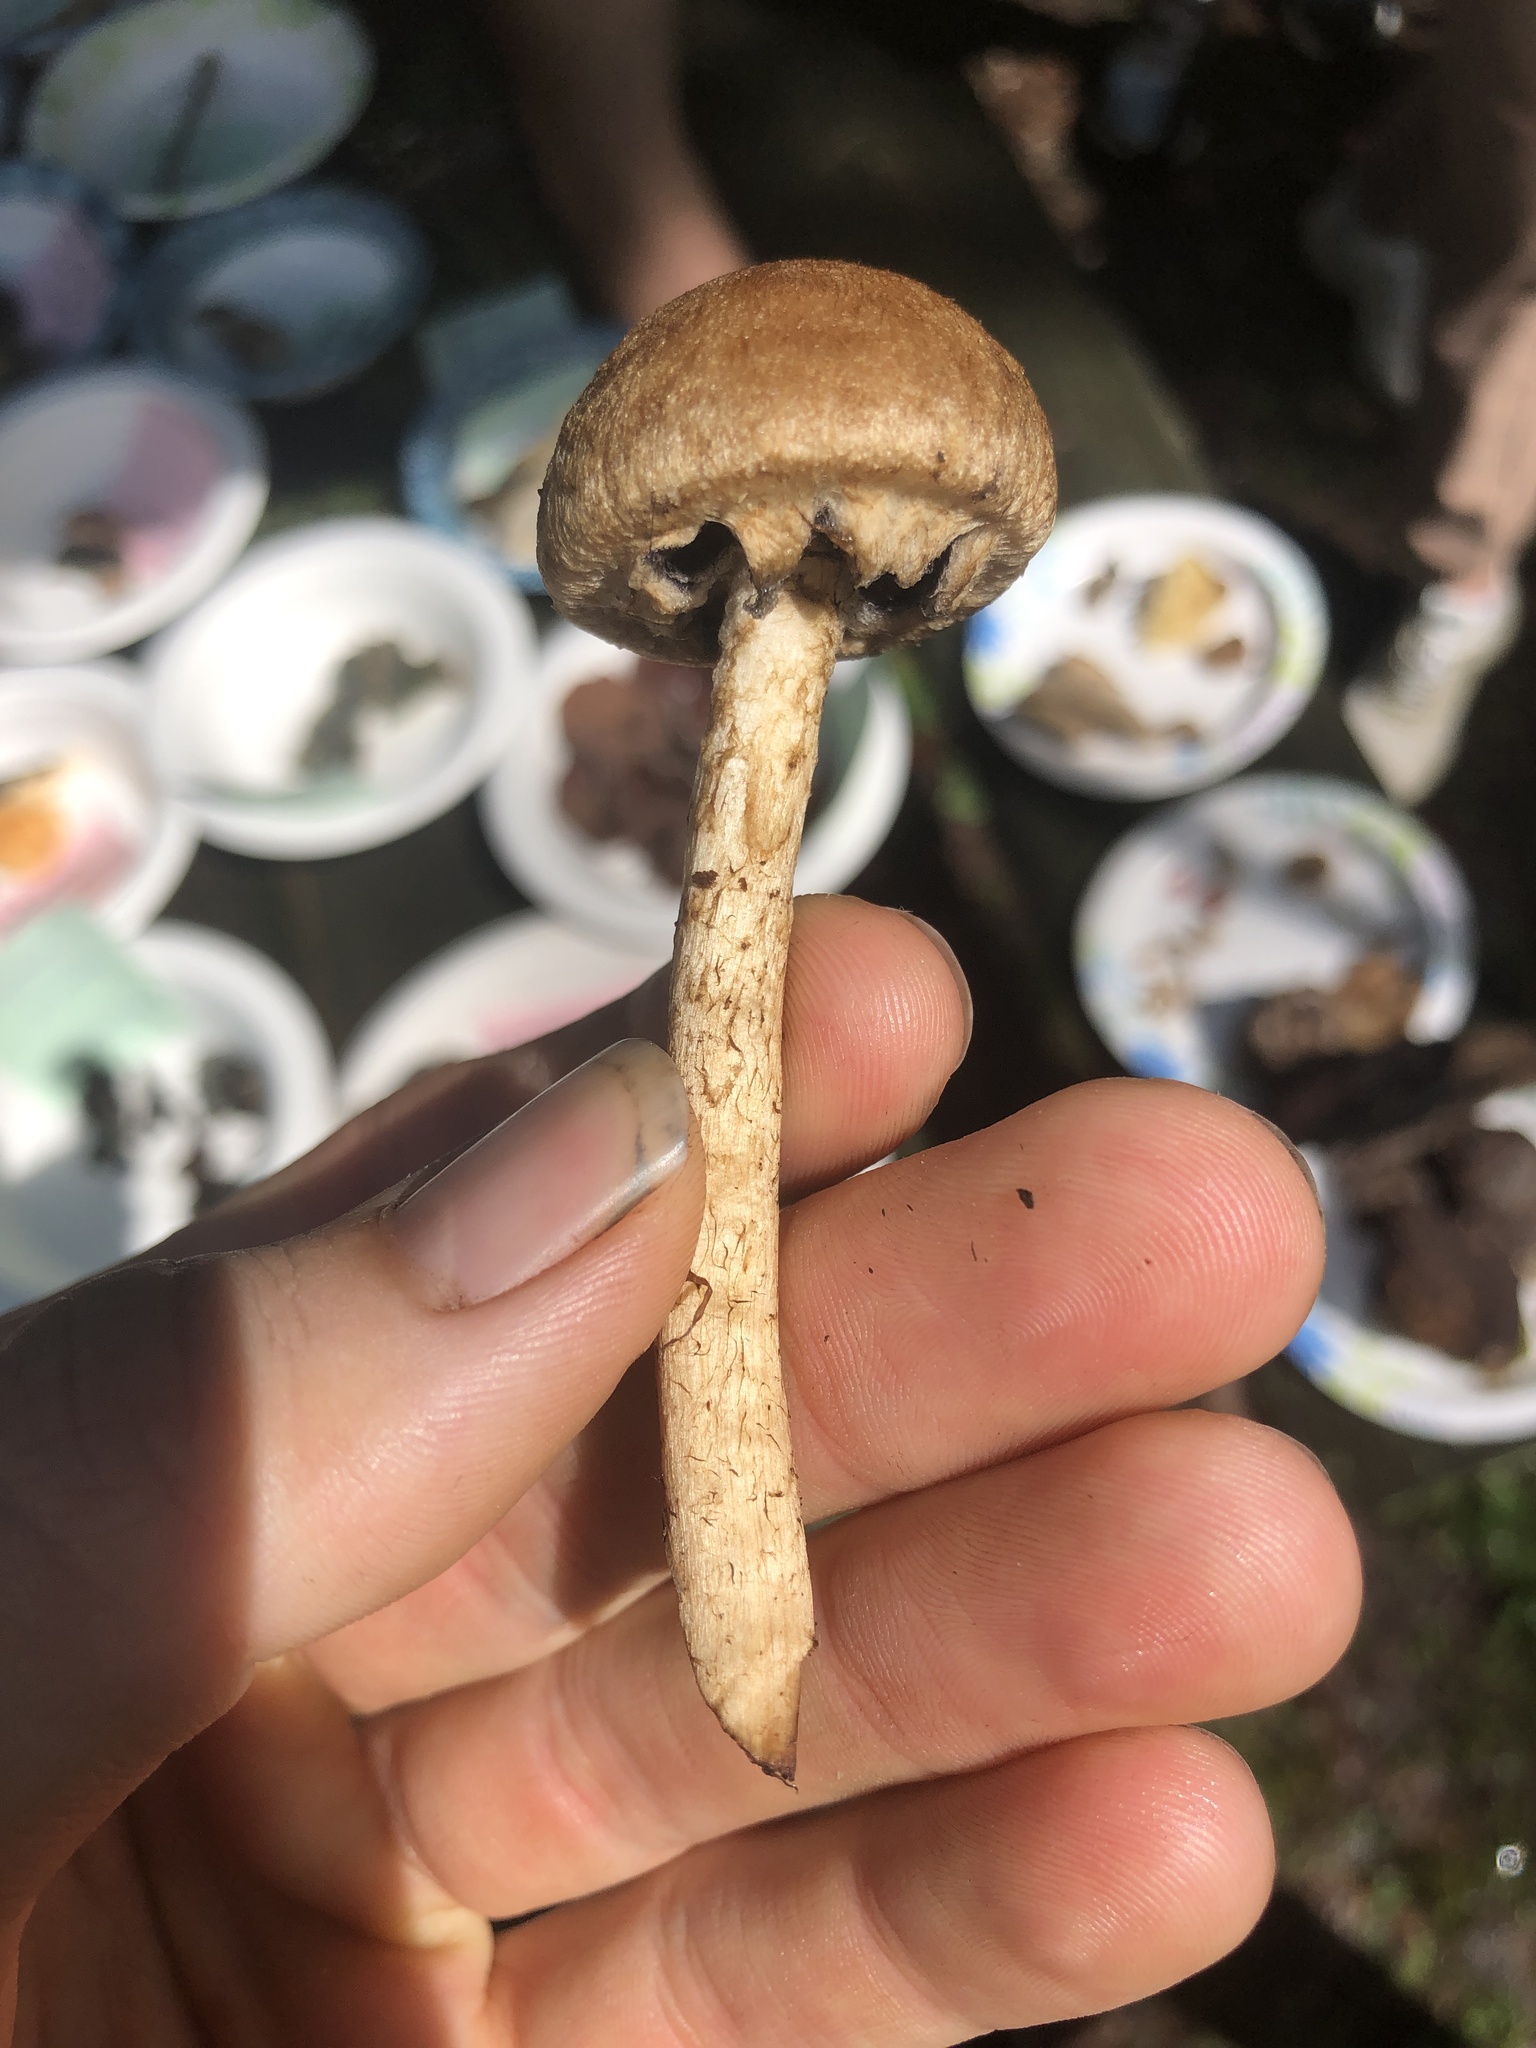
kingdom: Fungi
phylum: Basidiomycota
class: Agaricomycetes
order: Agaricales
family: Psathyrellaceae
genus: Lacrymaria
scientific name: Lacrymaria lacrymabunda
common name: Weeping widow
